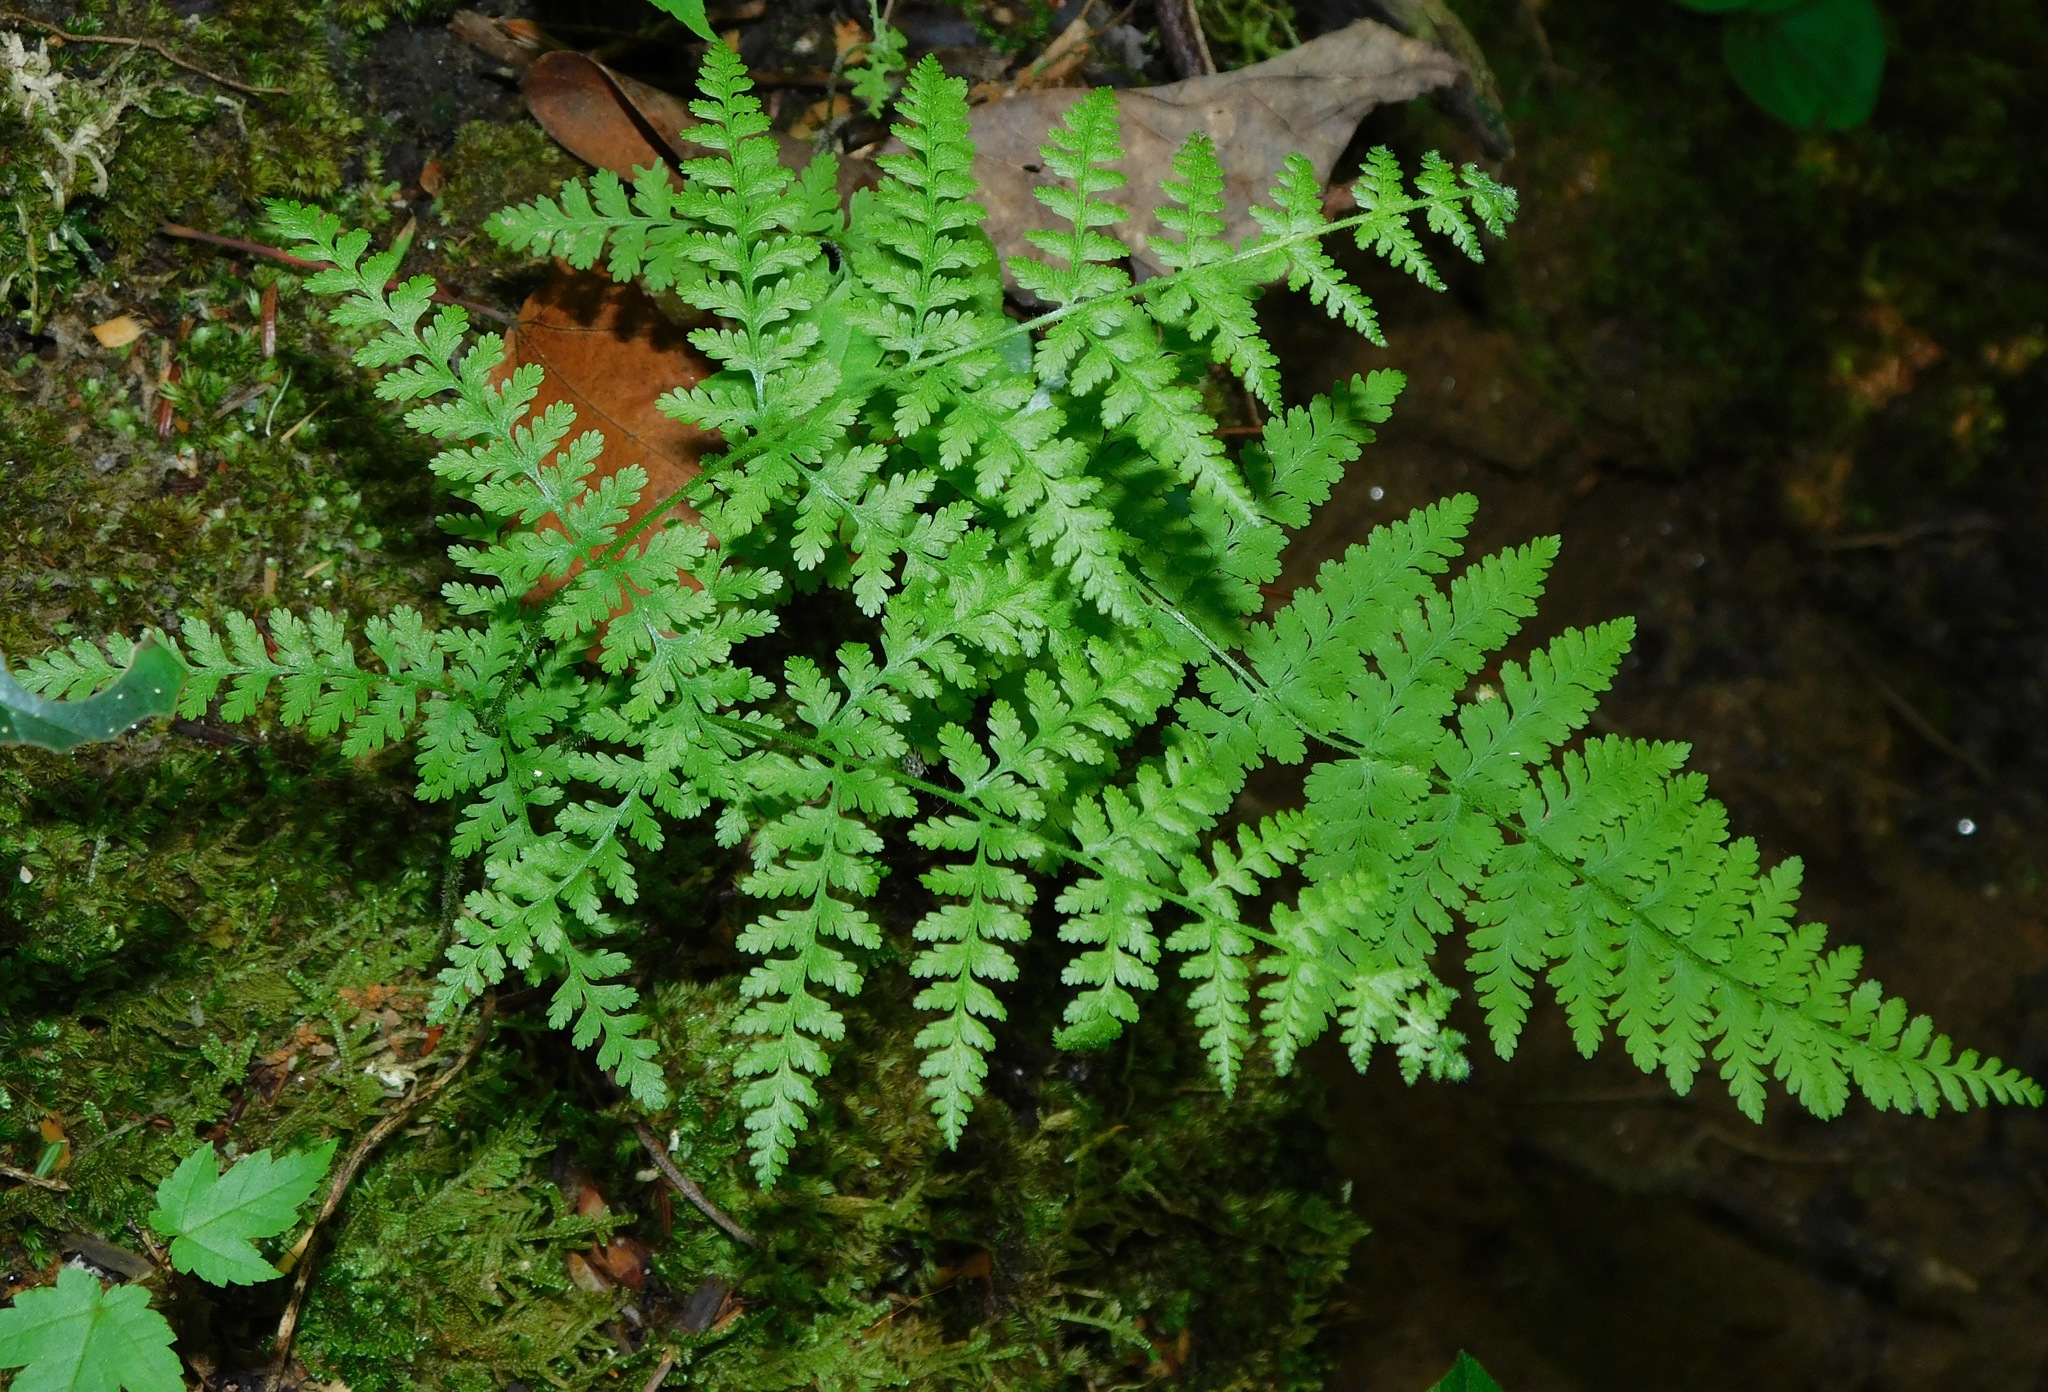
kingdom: Plantae
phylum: Tracheophyta
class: Polypodiopsida
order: Polypodiales
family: Dennstaedtiaceae
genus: Sitobolium
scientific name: Sitobolium punctilobum
